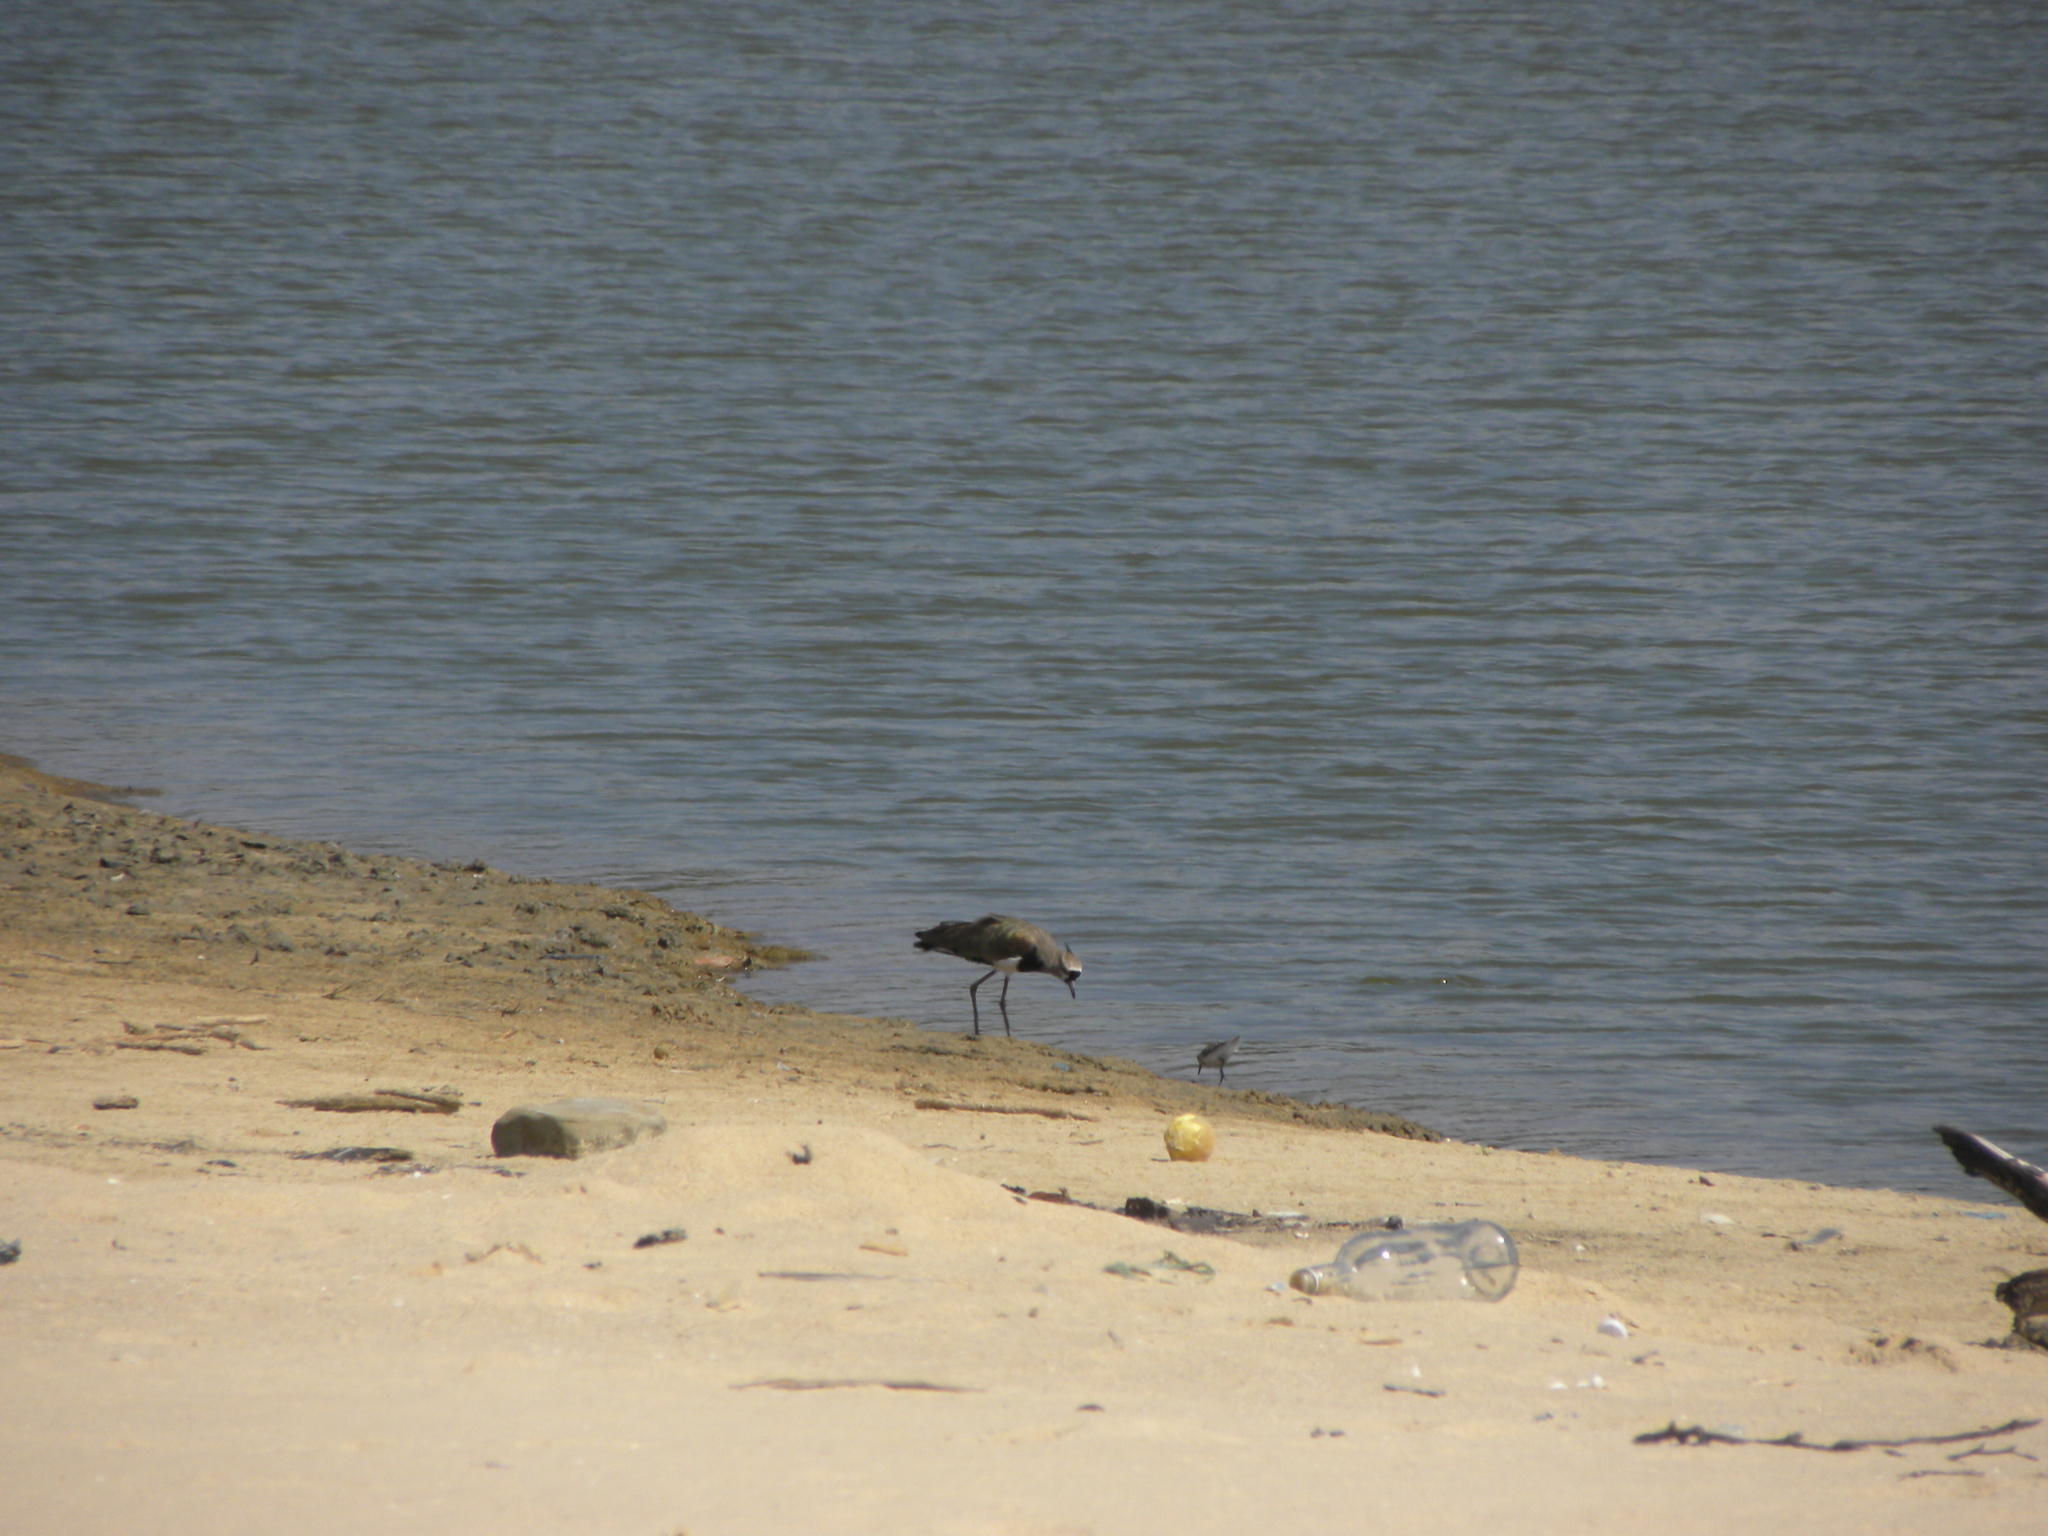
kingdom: Animalia
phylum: Chordata
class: Aves
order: Charadriiformes
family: Charadriidae
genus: Vanellus
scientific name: Vanellus chilensis
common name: Southern lapwing
